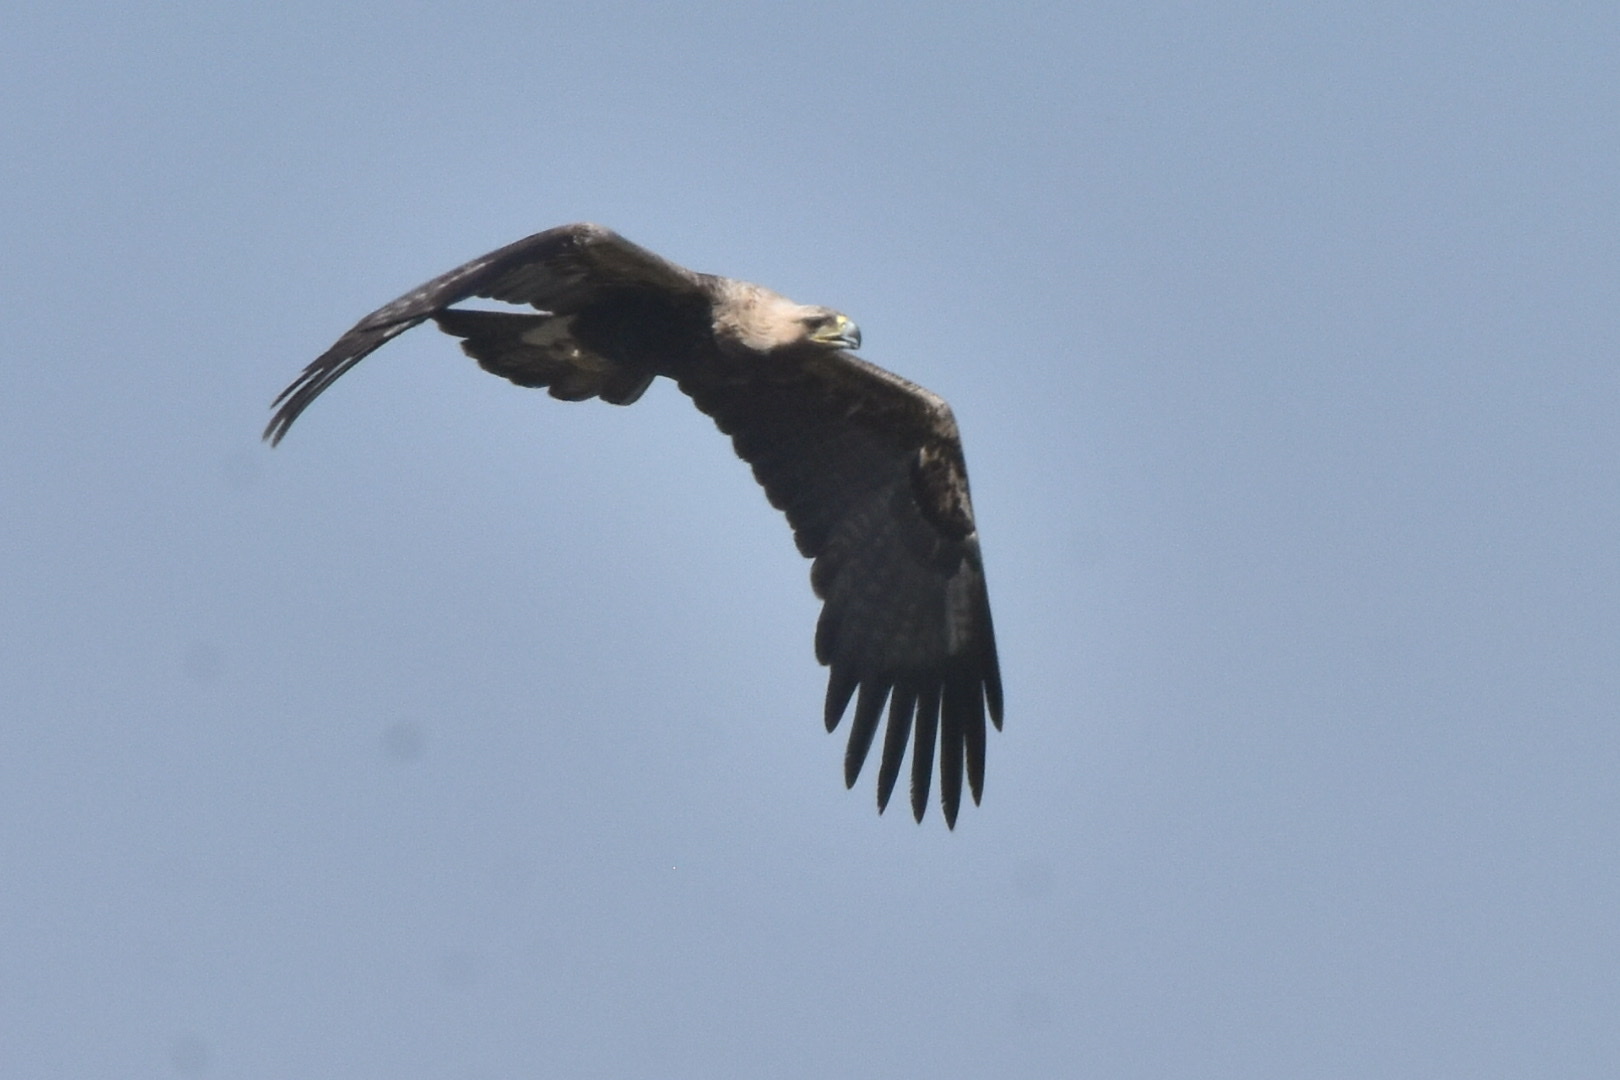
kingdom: Animalia
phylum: Chordata
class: Aves
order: Accipitriformes
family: Accipitridae
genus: Aquila
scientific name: Aquila heliaca
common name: Eastern imperial eagle
